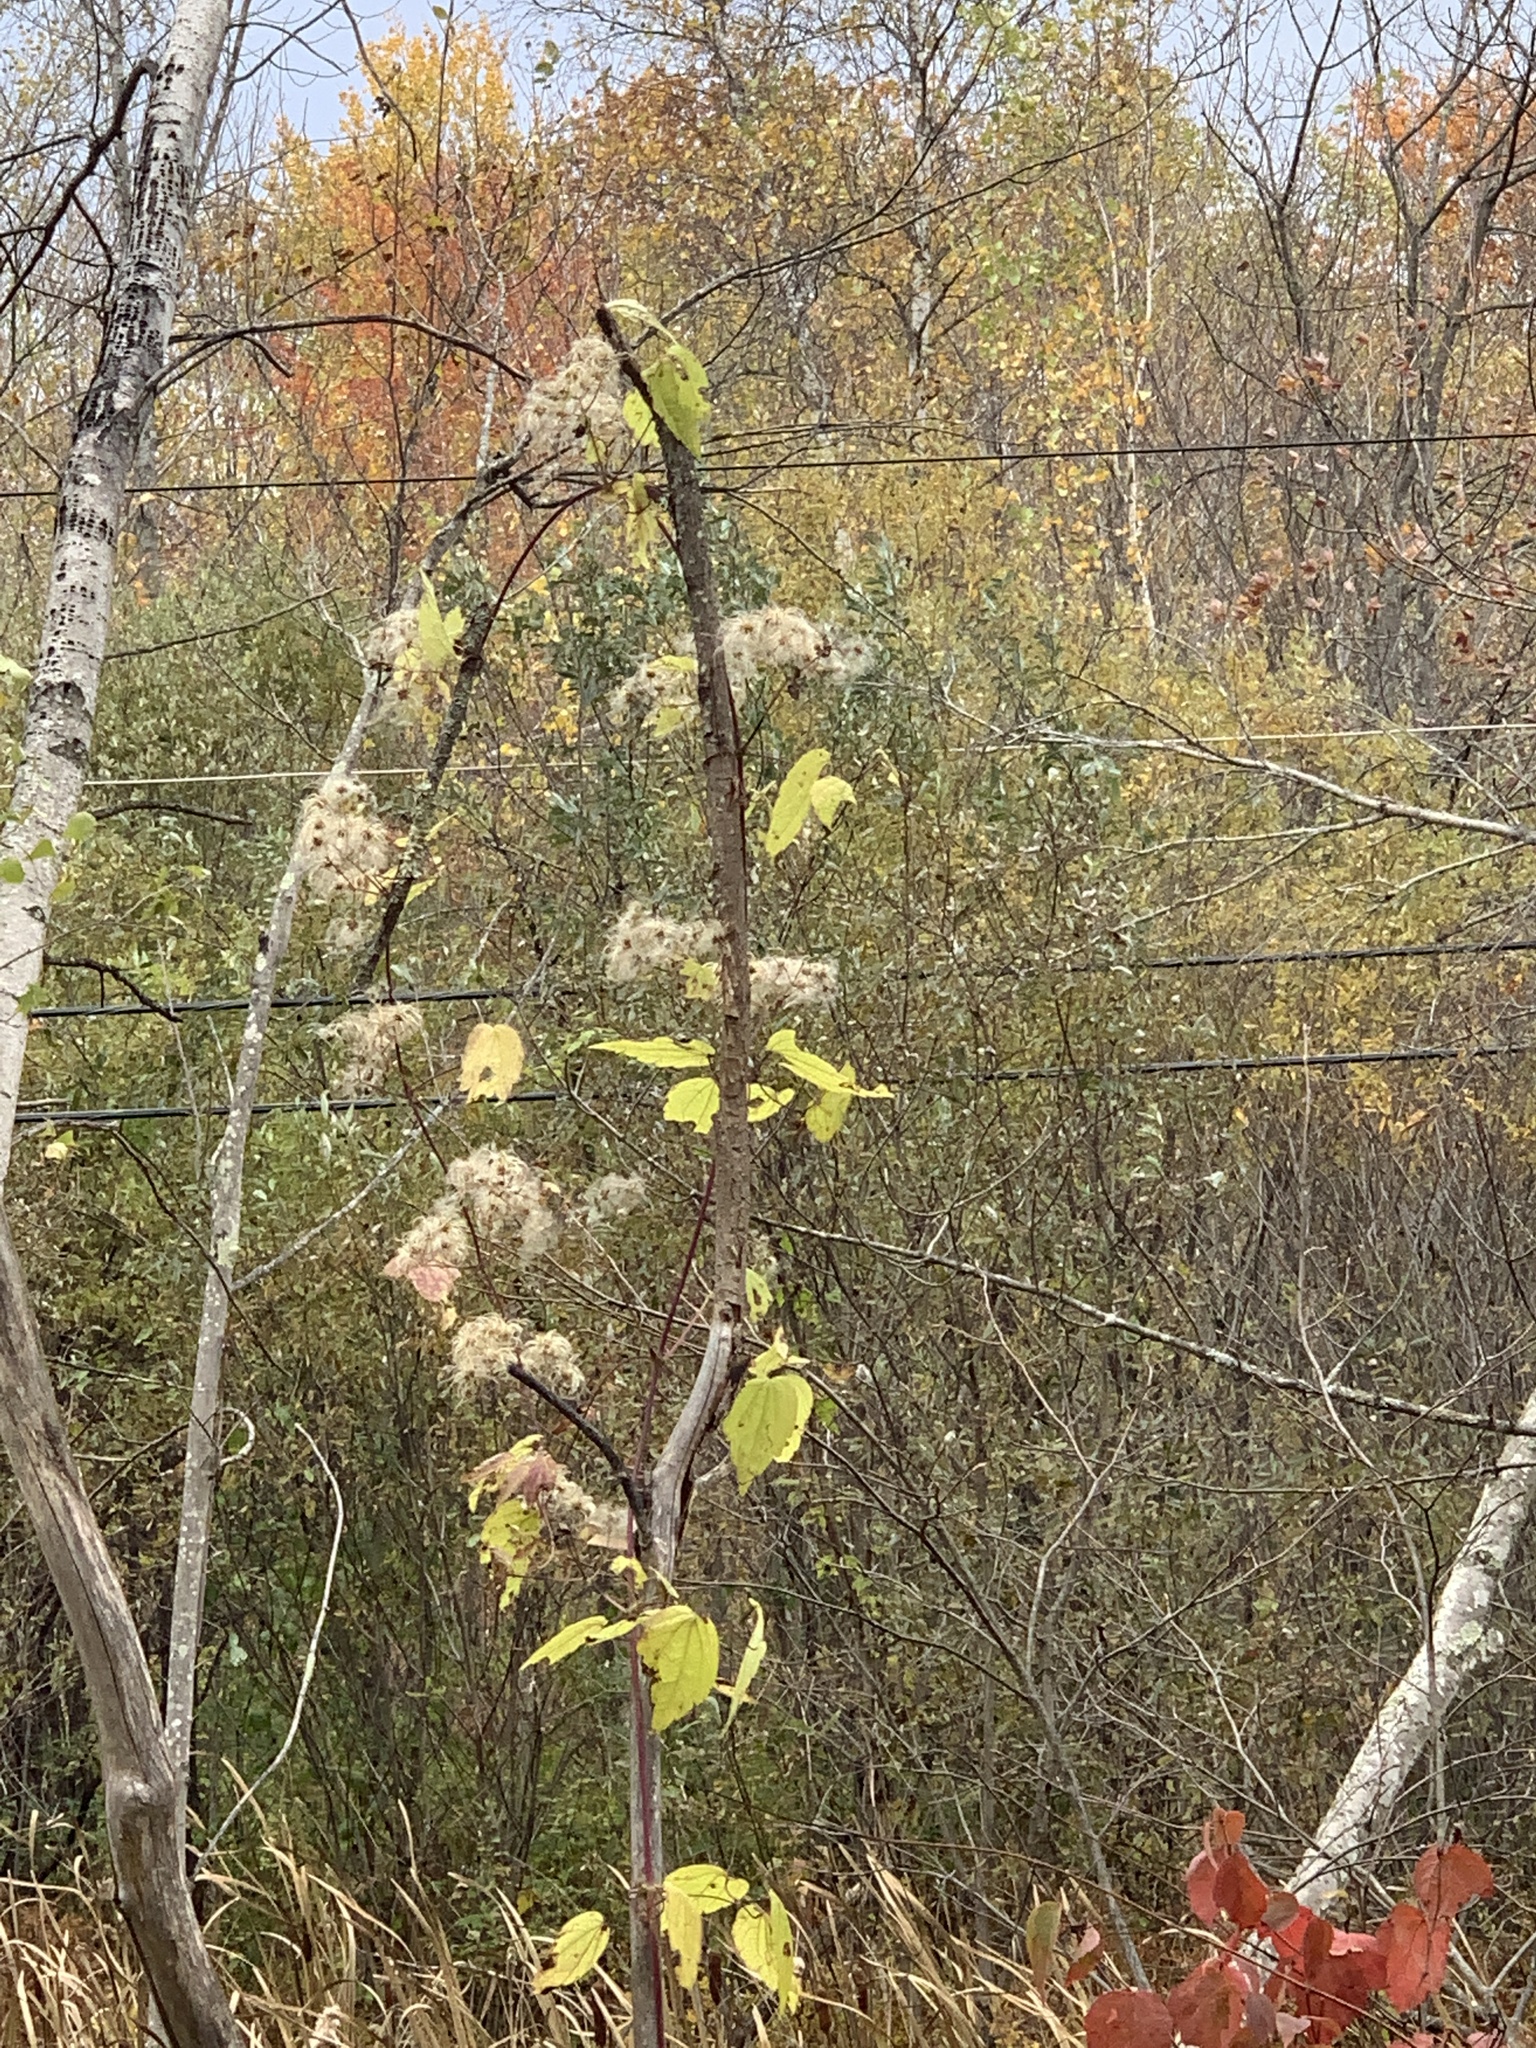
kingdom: Plantae
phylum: Tracheophyta
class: Magnoliopsida
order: Ranunculales
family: Ranunculaceae
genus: Clematis
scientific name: Clematis virginiana
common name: Virgin's-bower
